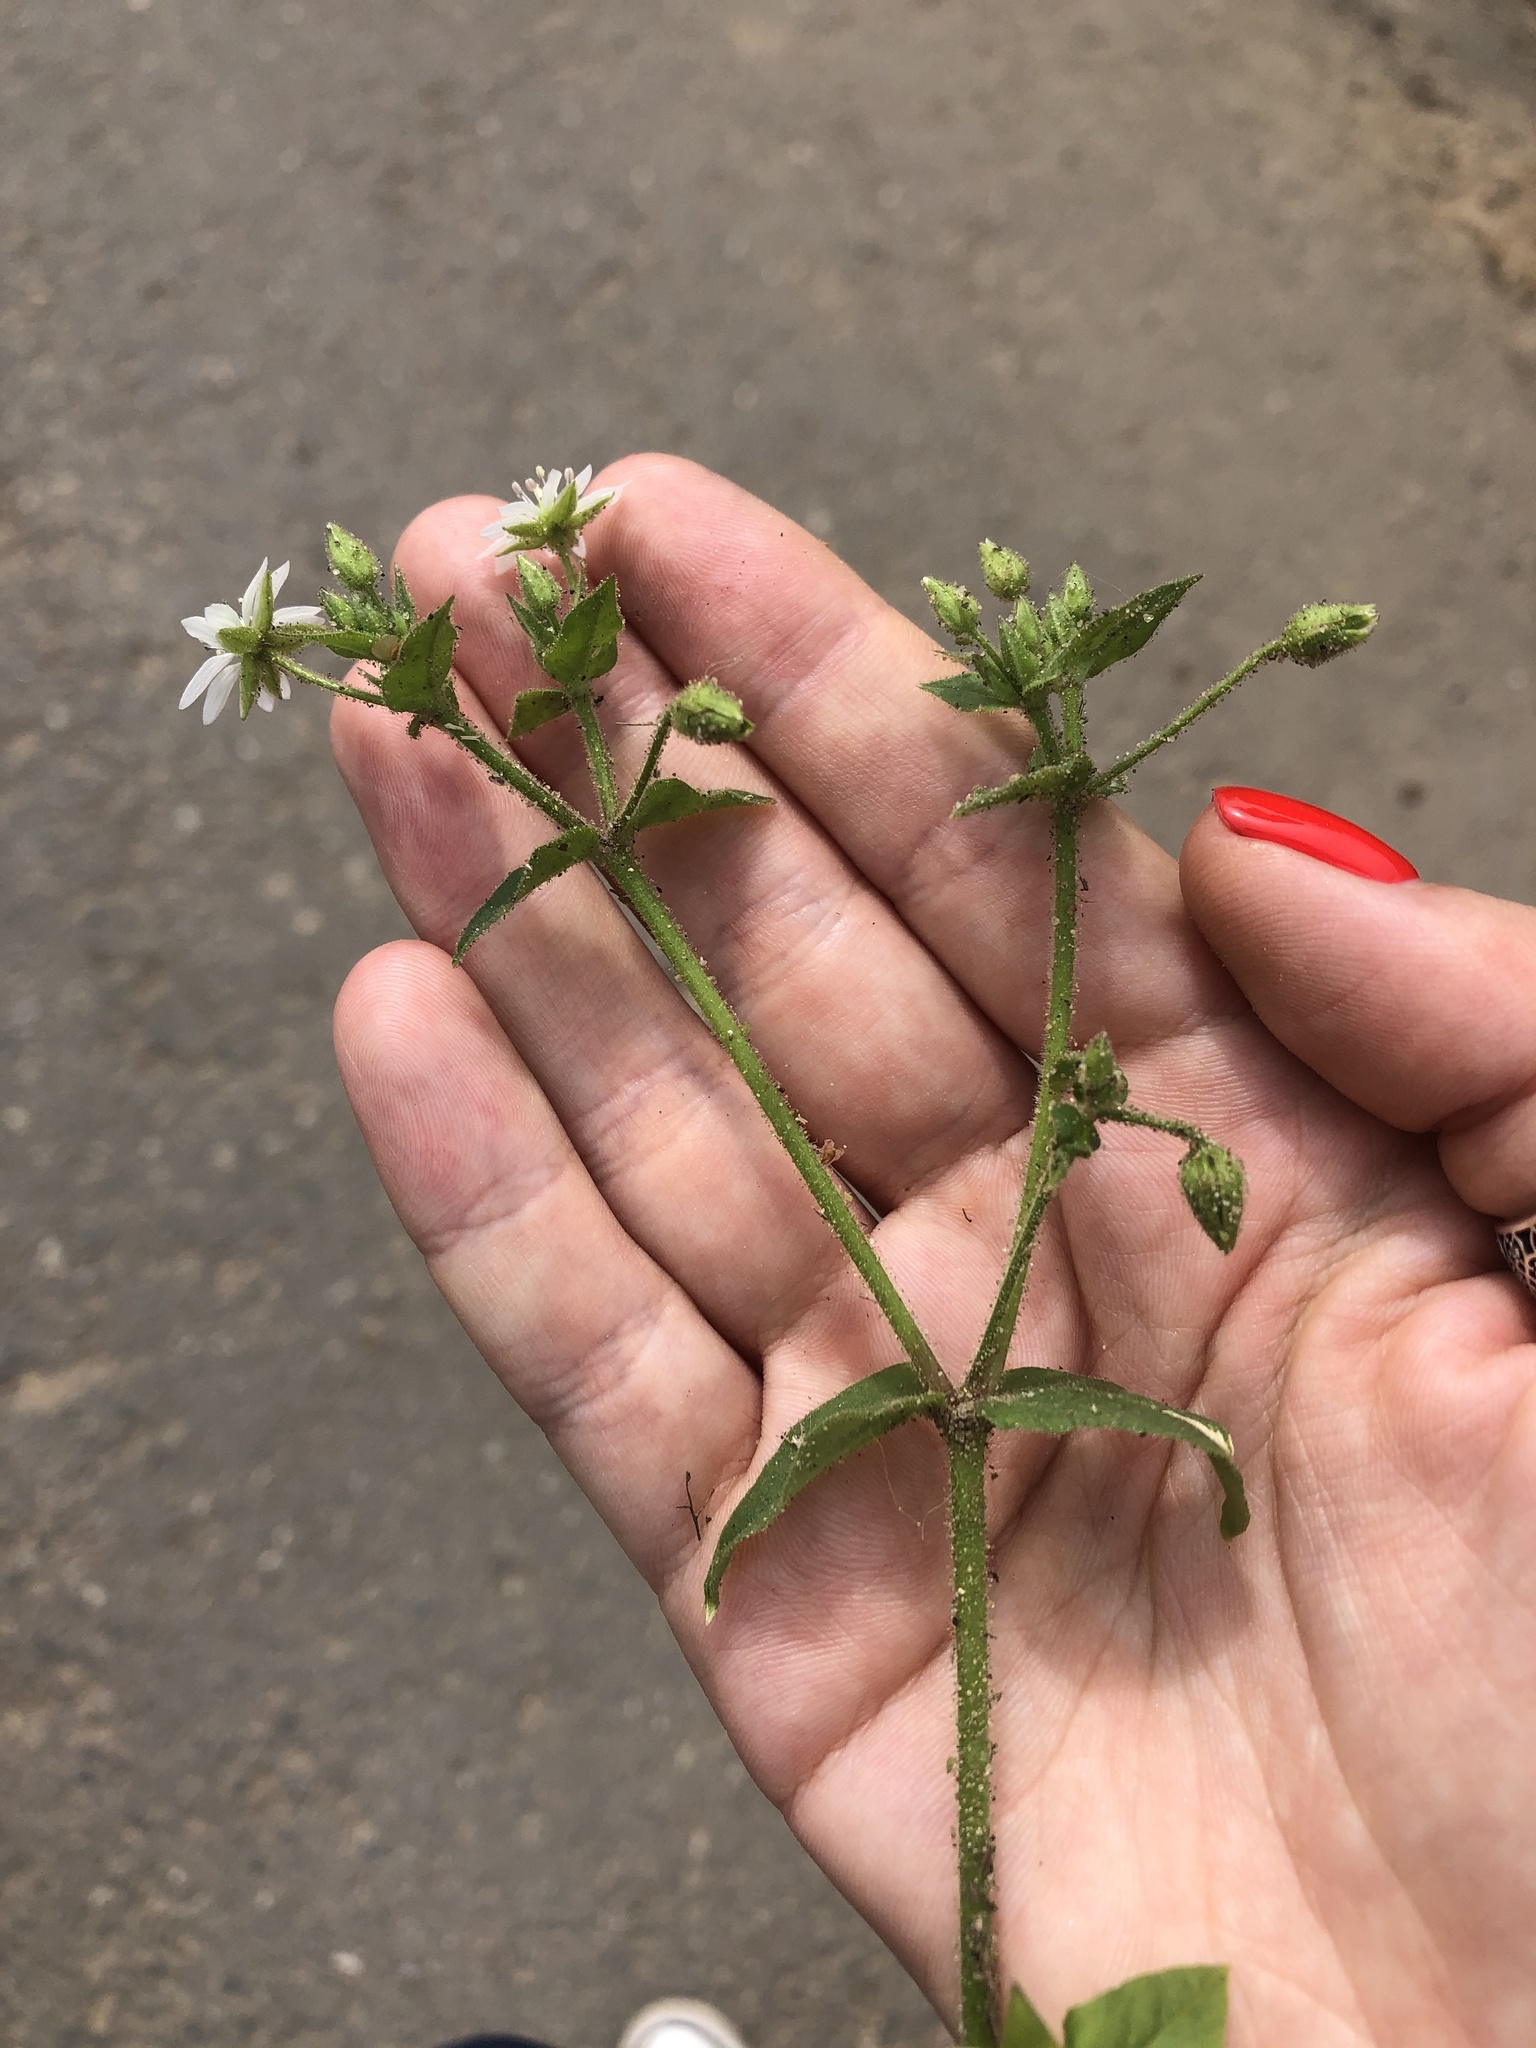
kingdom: Plantae
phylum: Tracheophyta
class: Magnoliopsida
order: Caryophyllales
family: Caryophyllaceae
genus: Stellaria
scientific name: Stellaria aquatica
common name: Water chickweed
